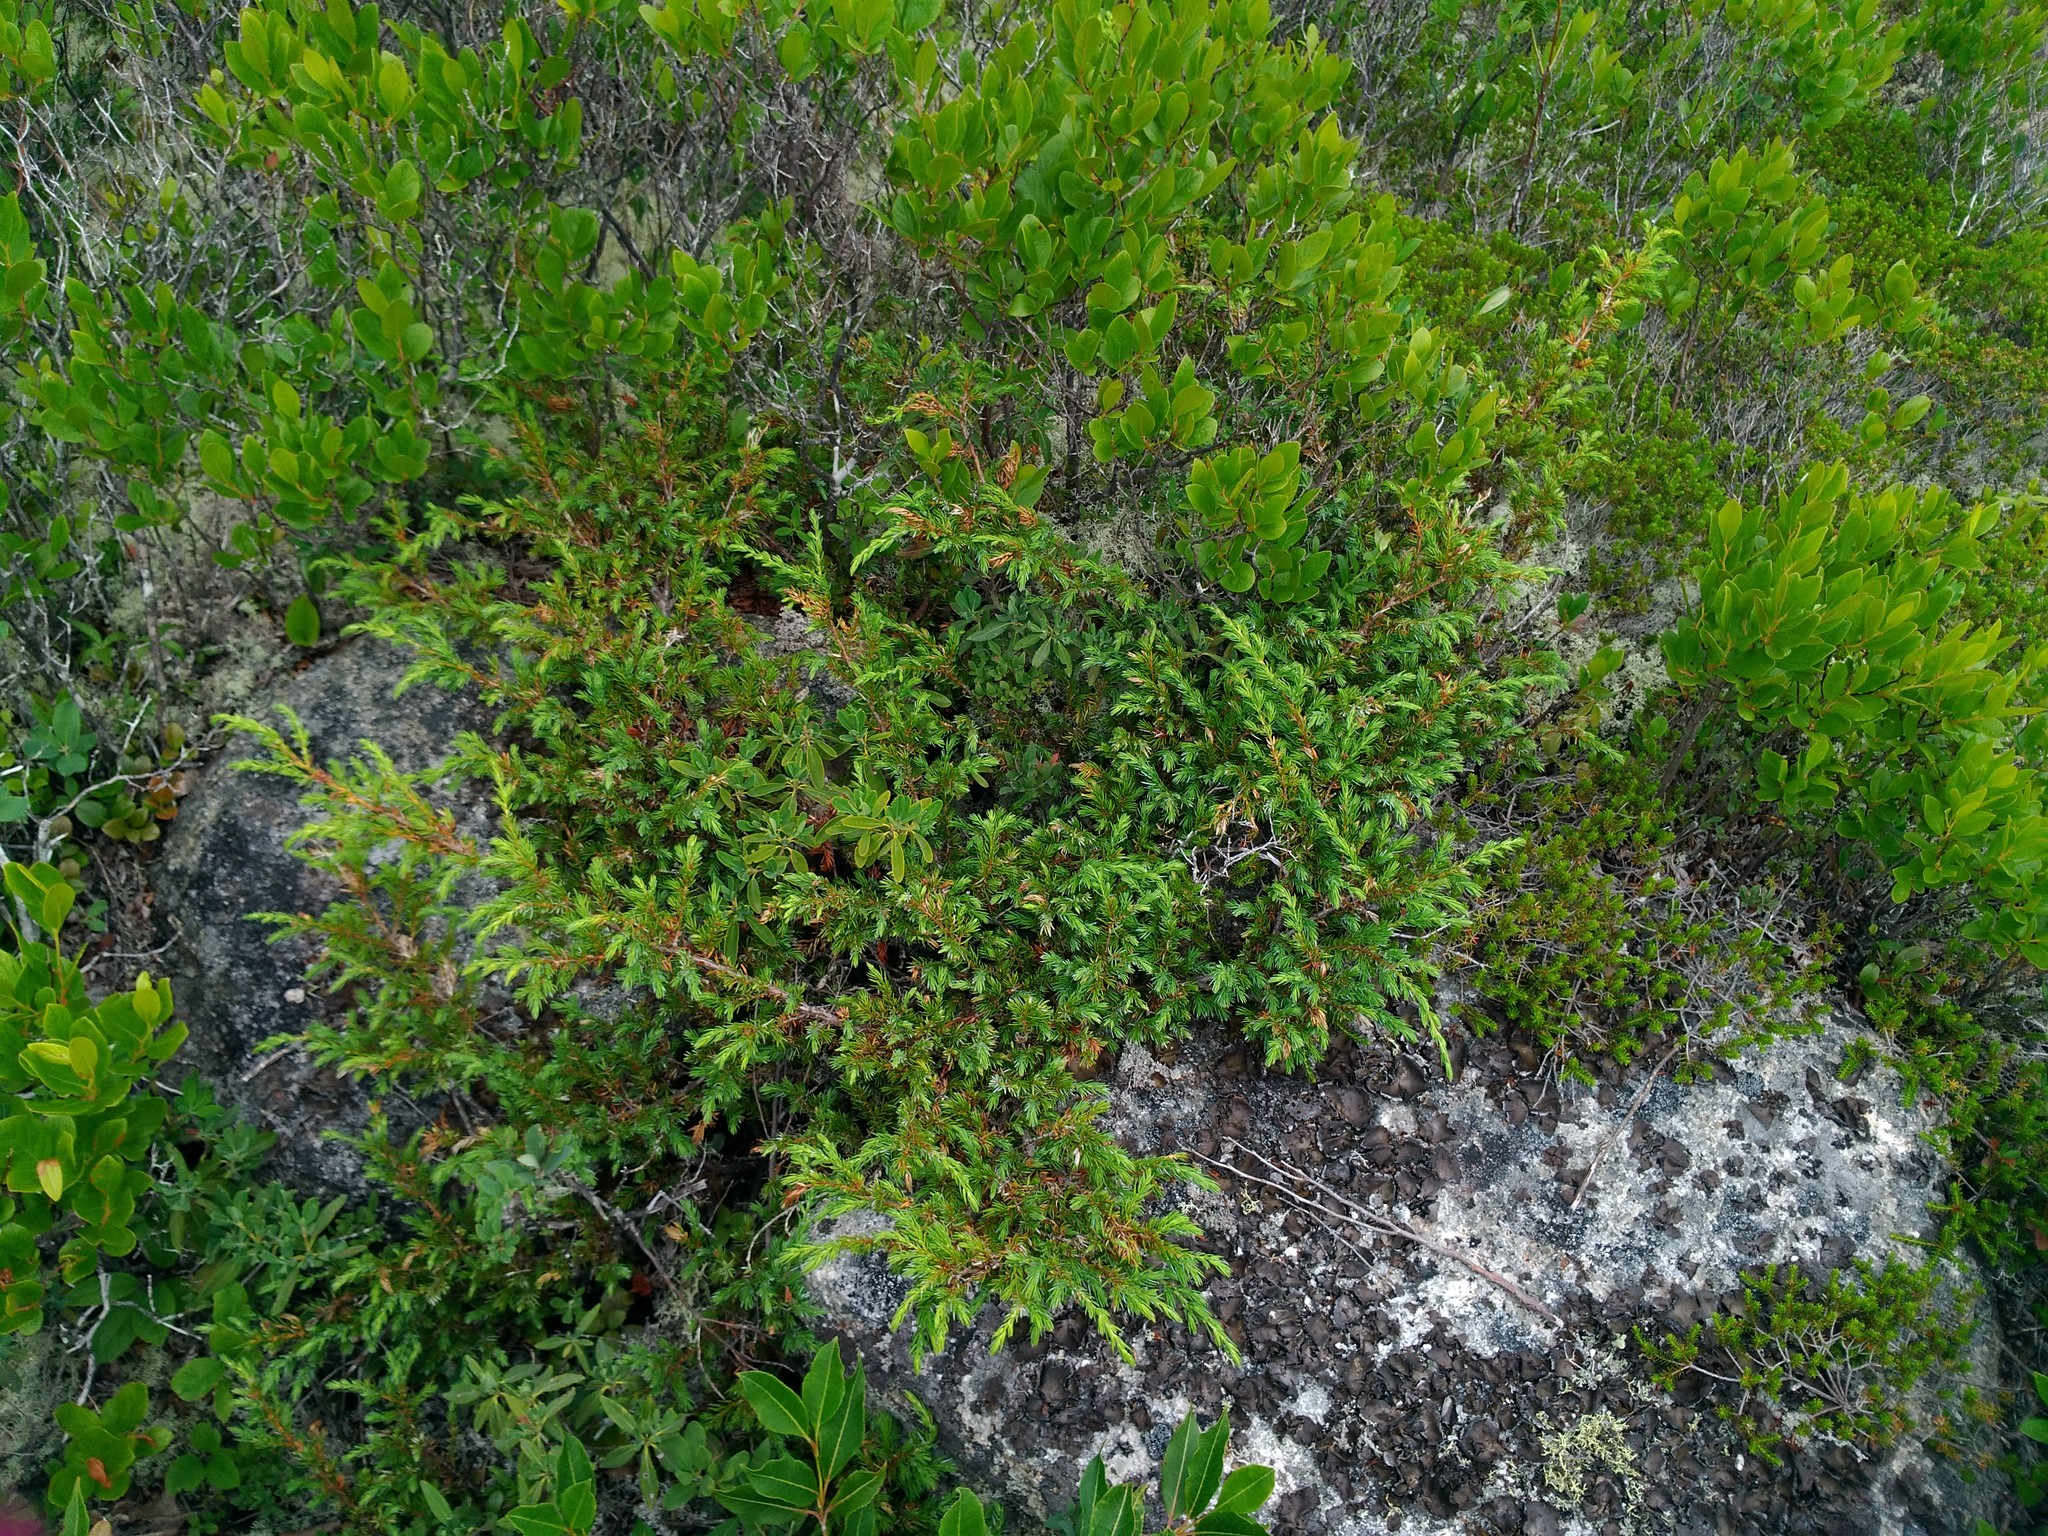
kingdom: Plantae
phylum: Tracheophyta
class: Pinopsida
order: Pinales
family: Cupressaceae
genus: Juniperus
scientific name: Juniperus communis
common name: Common juniper
